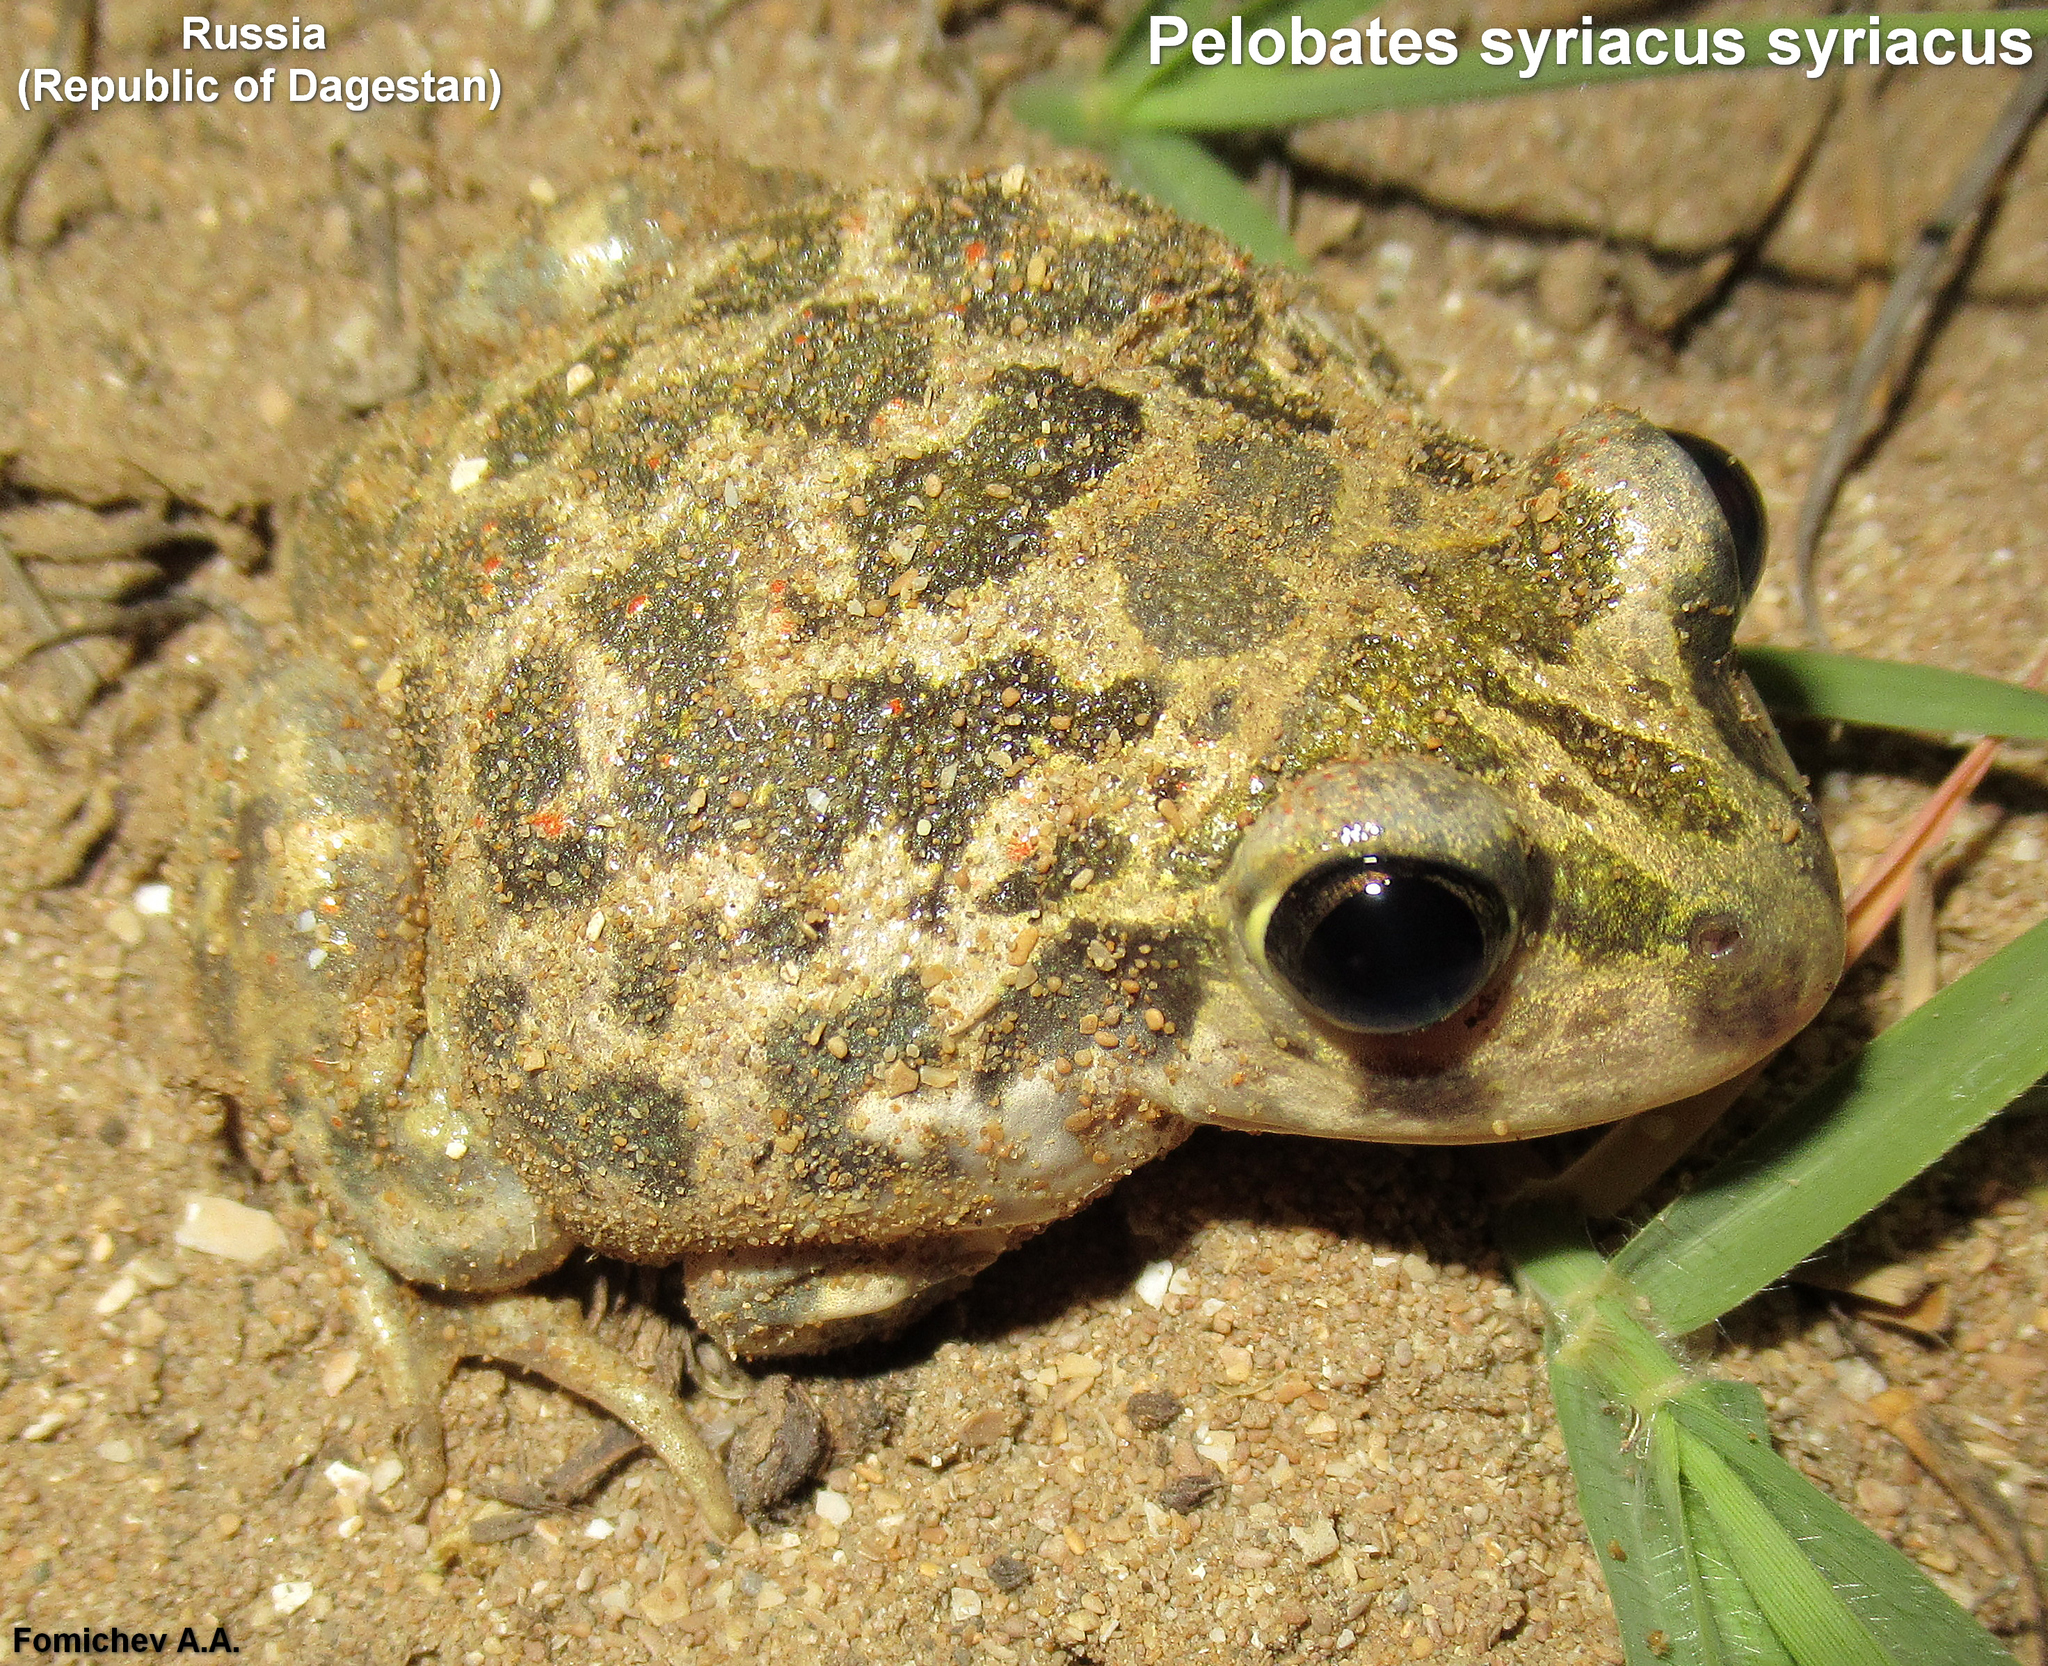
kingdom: Animalia
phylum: Chordata
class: Amphibia
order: Anura
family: Pelobatidae
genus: Pelobates
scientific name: Pelobates syriacus
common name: Syrian spadefoot toad
